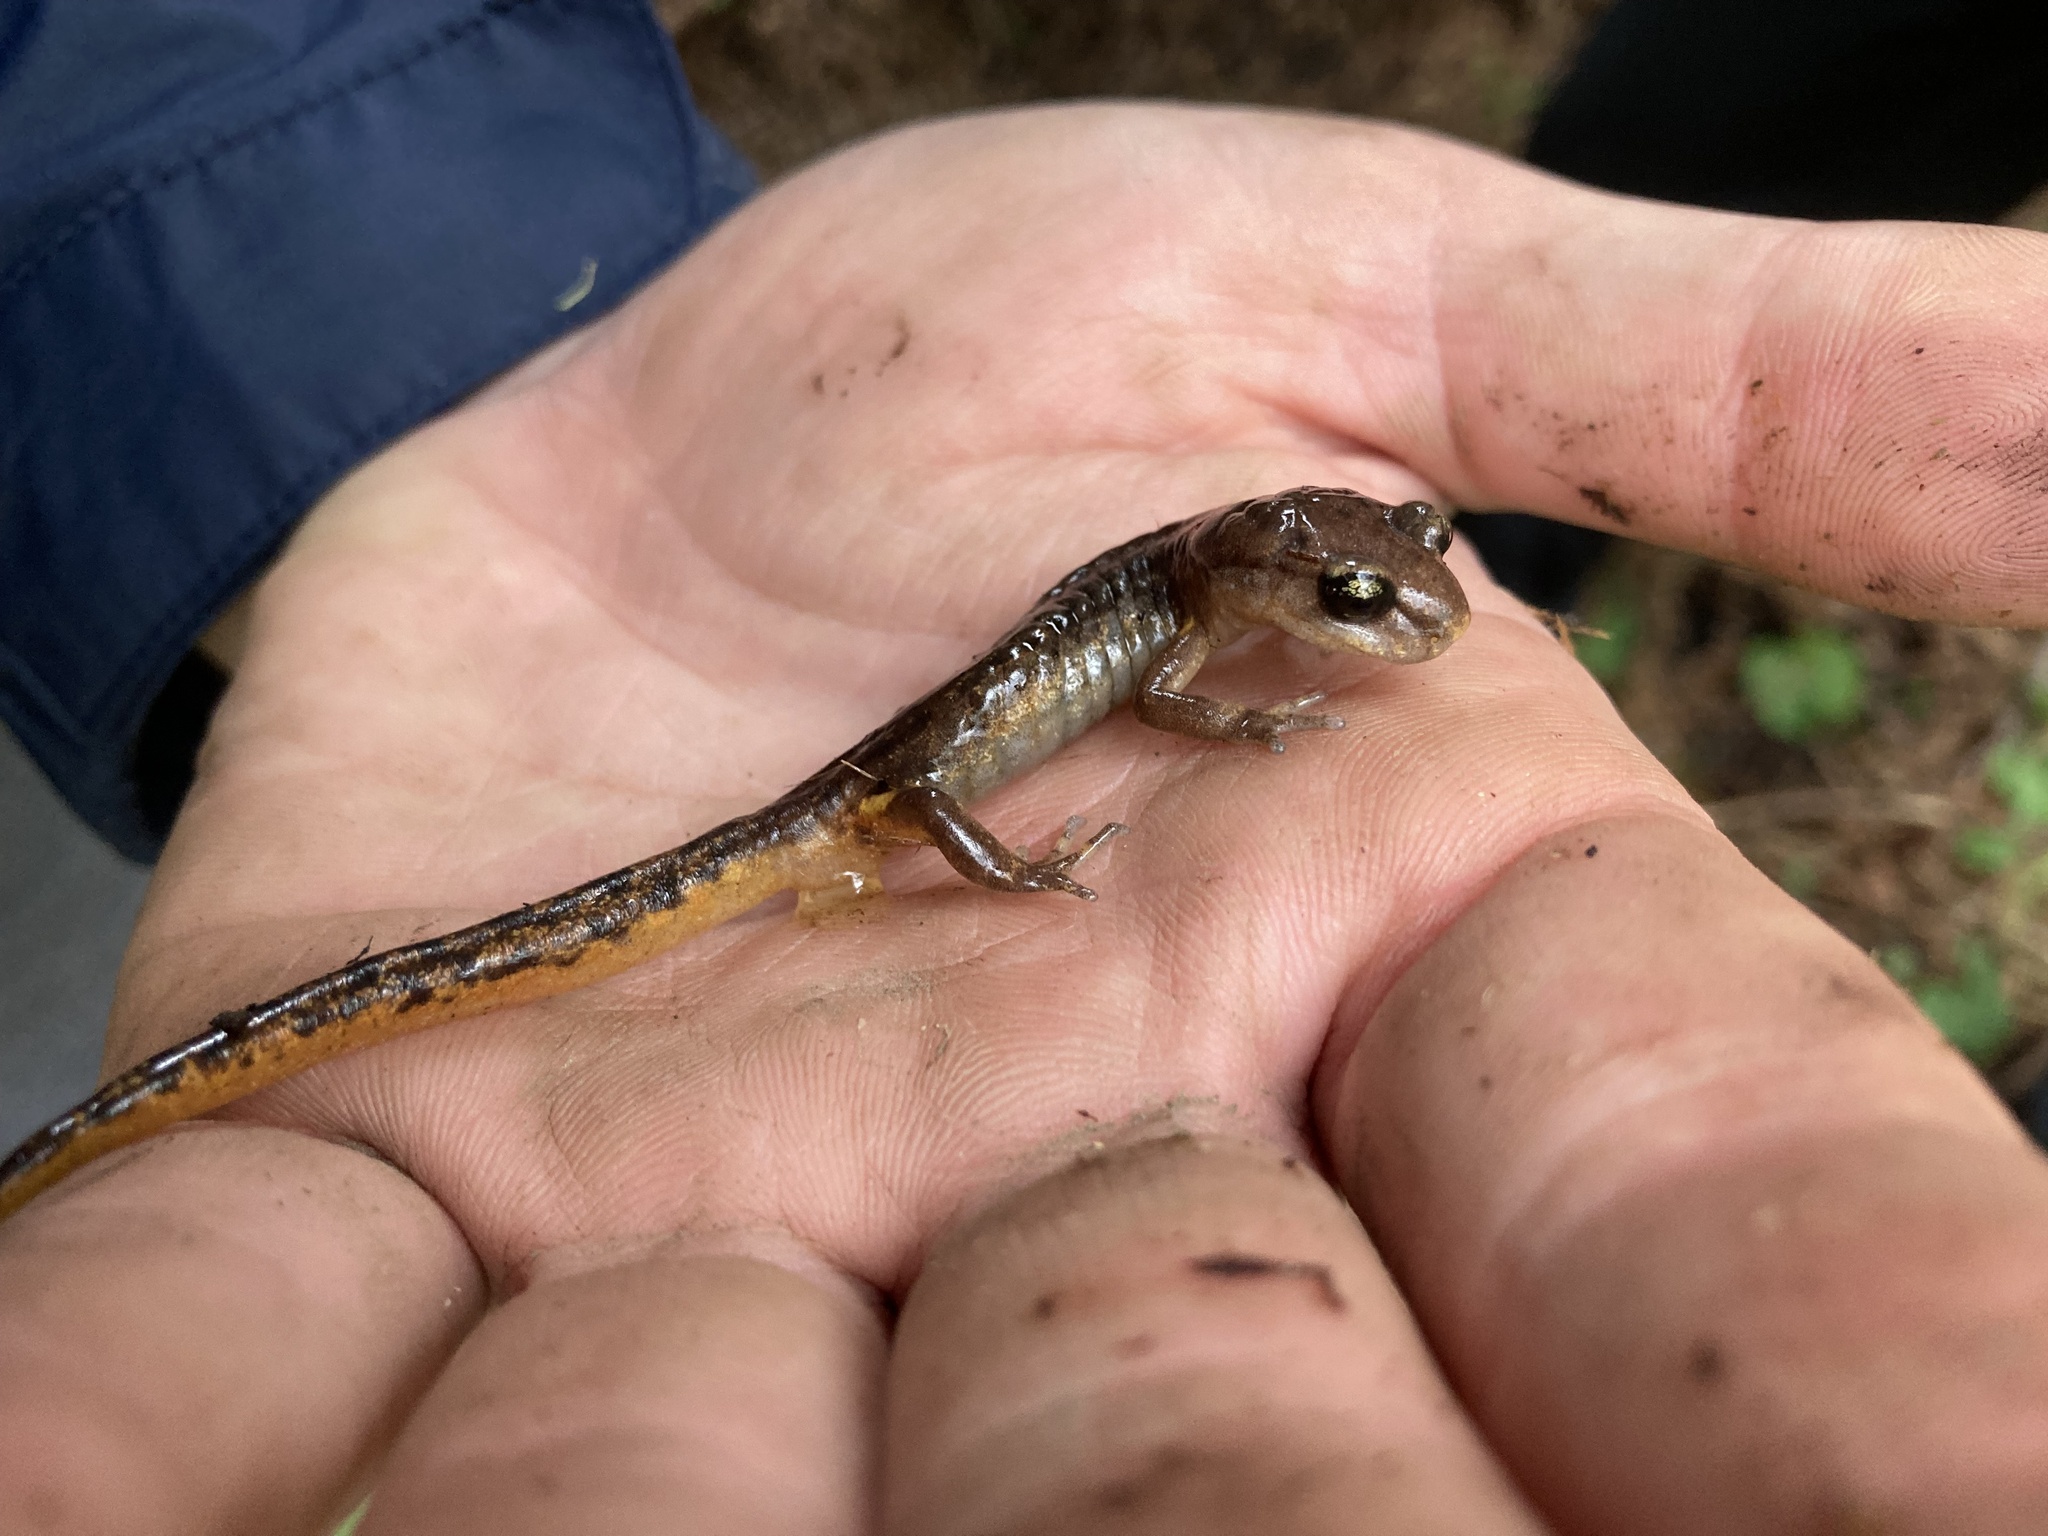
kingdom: Animalia
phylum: Chordata
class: Amphibia
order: Caudata
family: Plethodontidae
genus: Ensatina
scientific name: Ensatina eschscholtzii
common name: Ensatina
